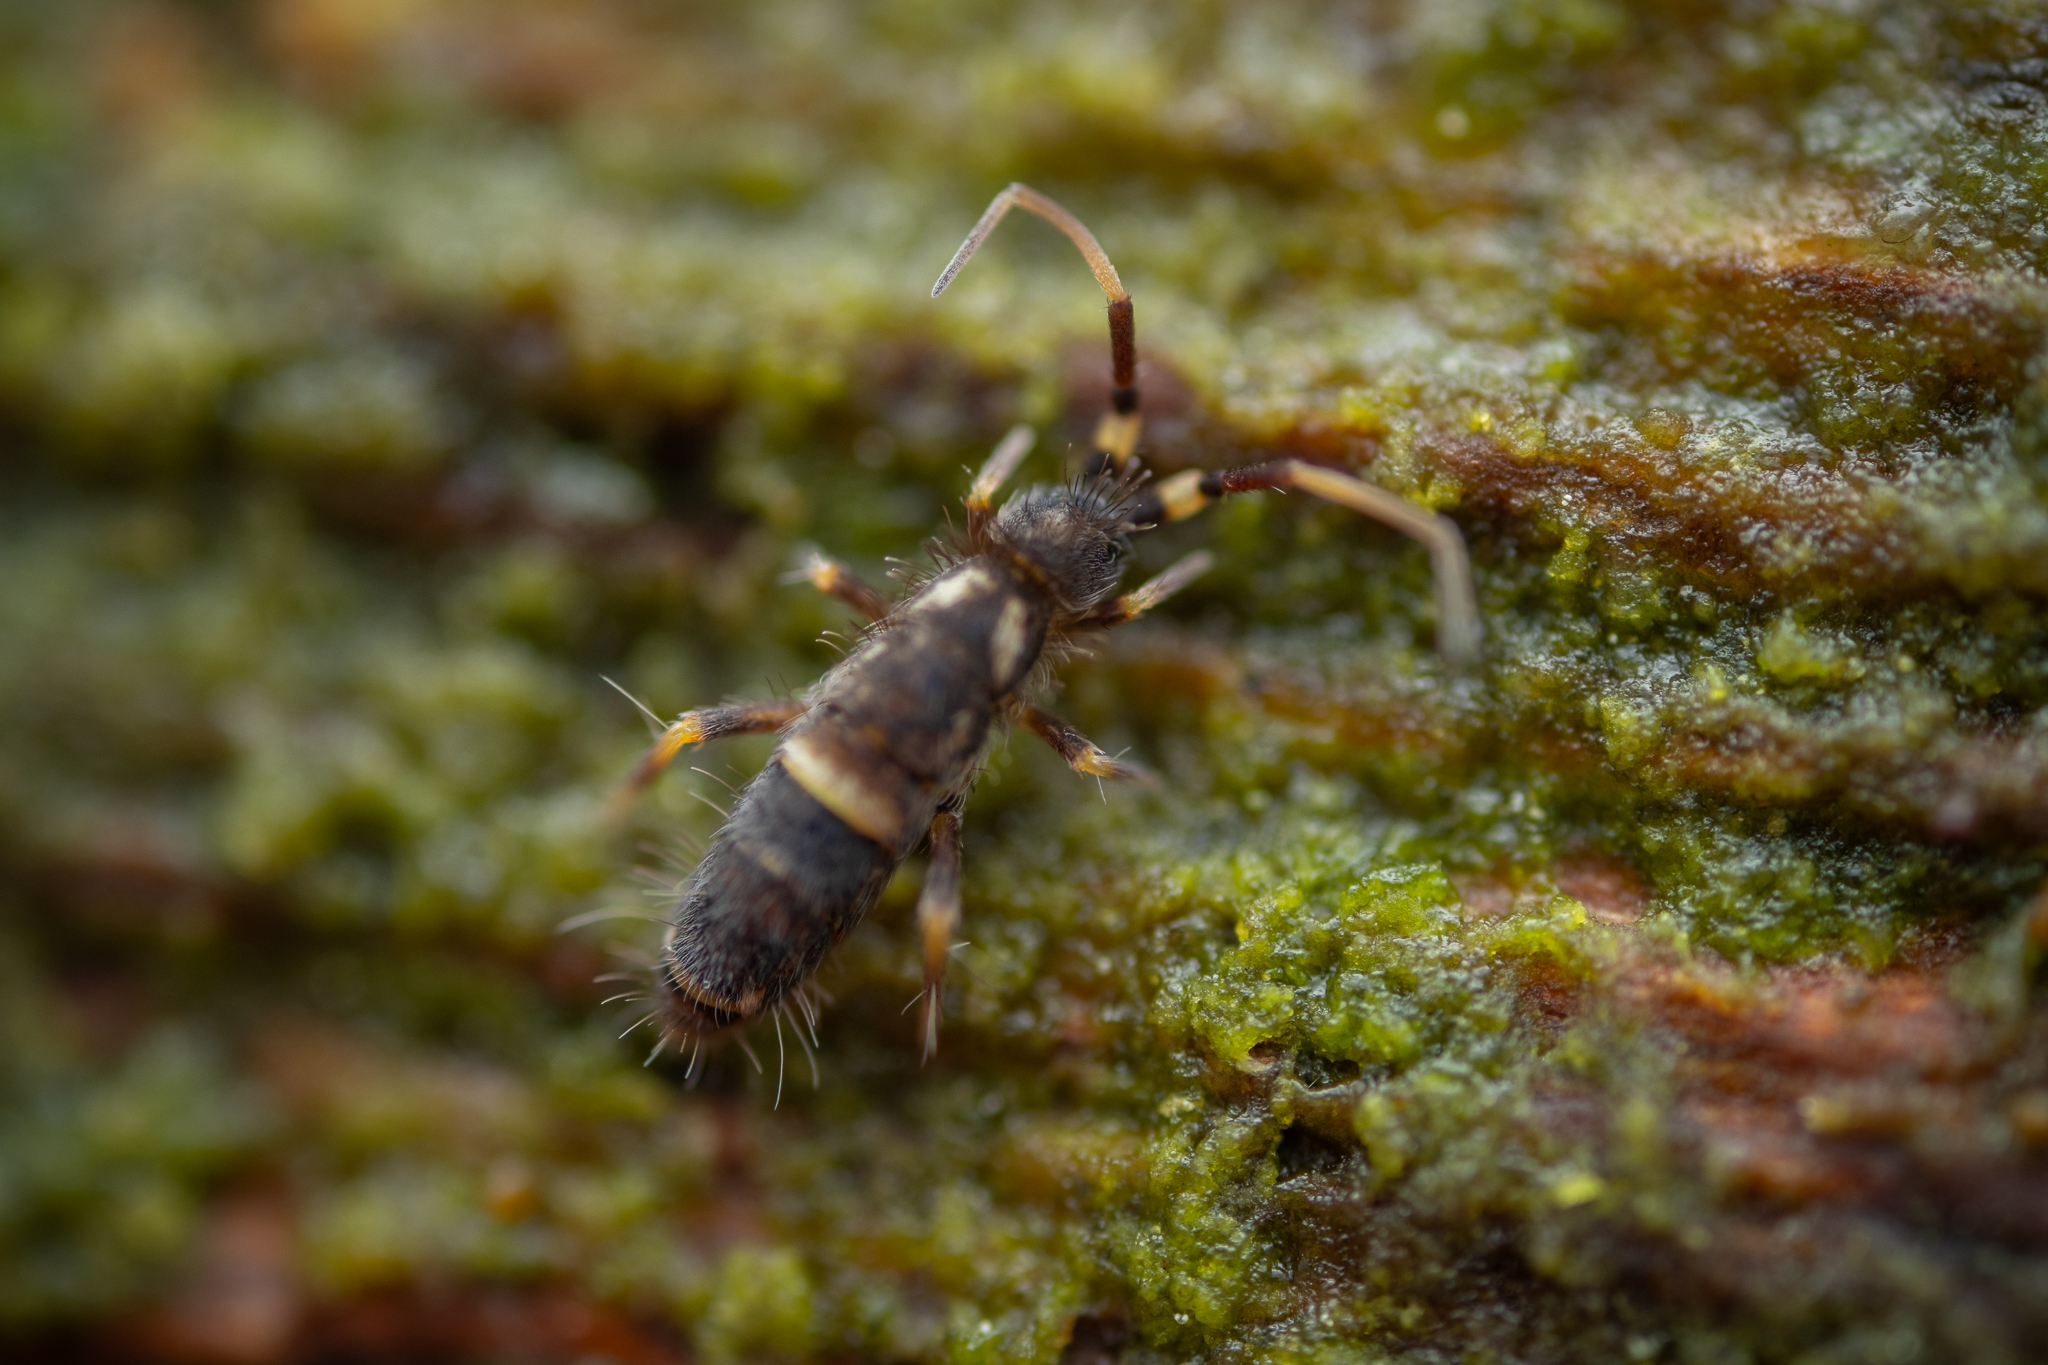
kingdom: Animalia
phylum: Arthropoda
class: Collembola
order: Entomobryomorpha
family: Orchesellidae
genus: Orchesella
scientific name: Orchesella cincta
